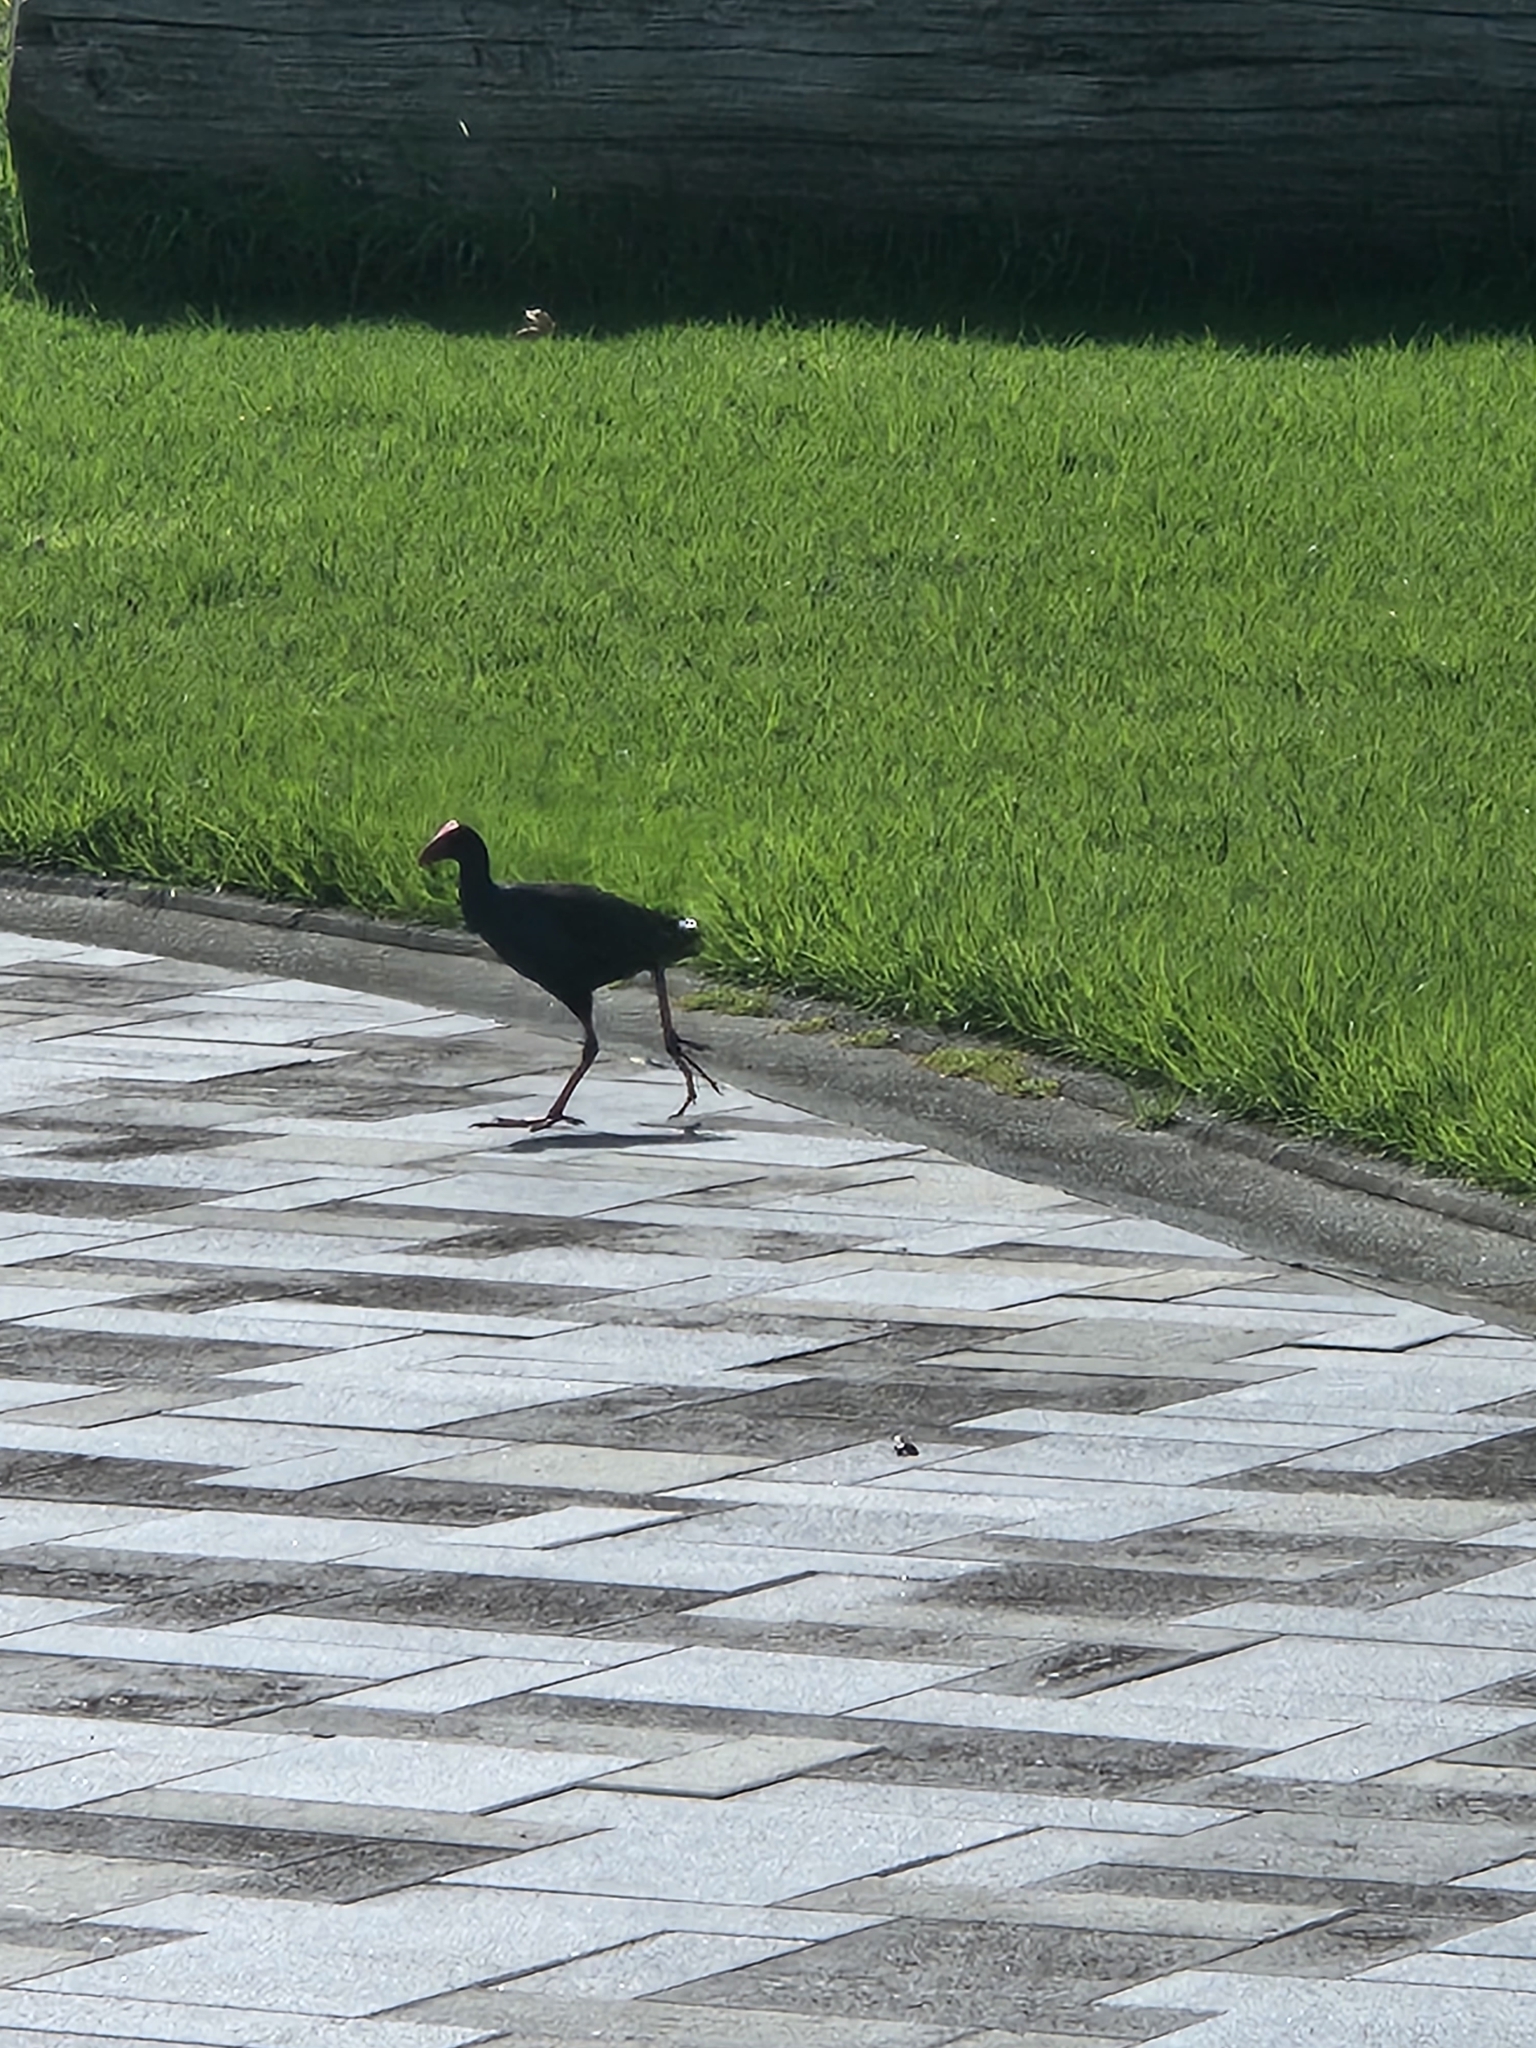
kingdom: Animalia
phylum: Chordata
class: Aves
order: Gruiformes
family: Rallidae
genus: Porphyrio
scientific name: Porphyrio melanotus
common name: Australasian swamphen
